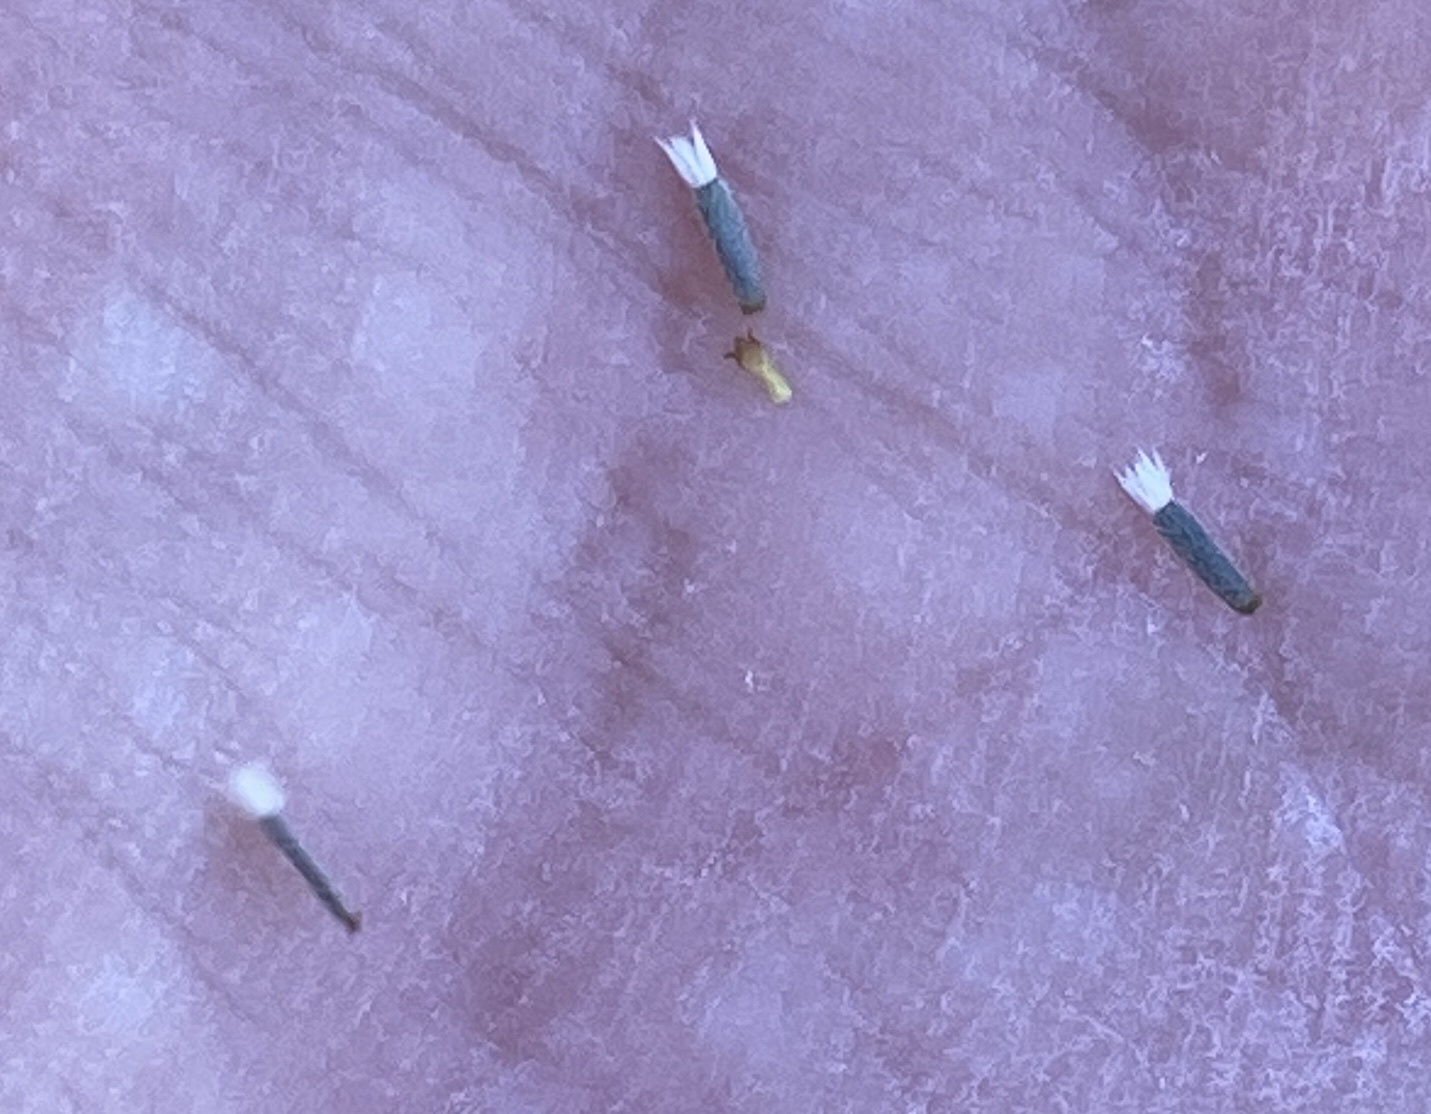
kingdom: Plantae
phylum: Tracheophyta
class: Magnoliopsida
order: Asterales
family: Asteraceae
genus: Lasthenia
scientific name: Lasthenia glaberrima
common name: Smooth goldfields
